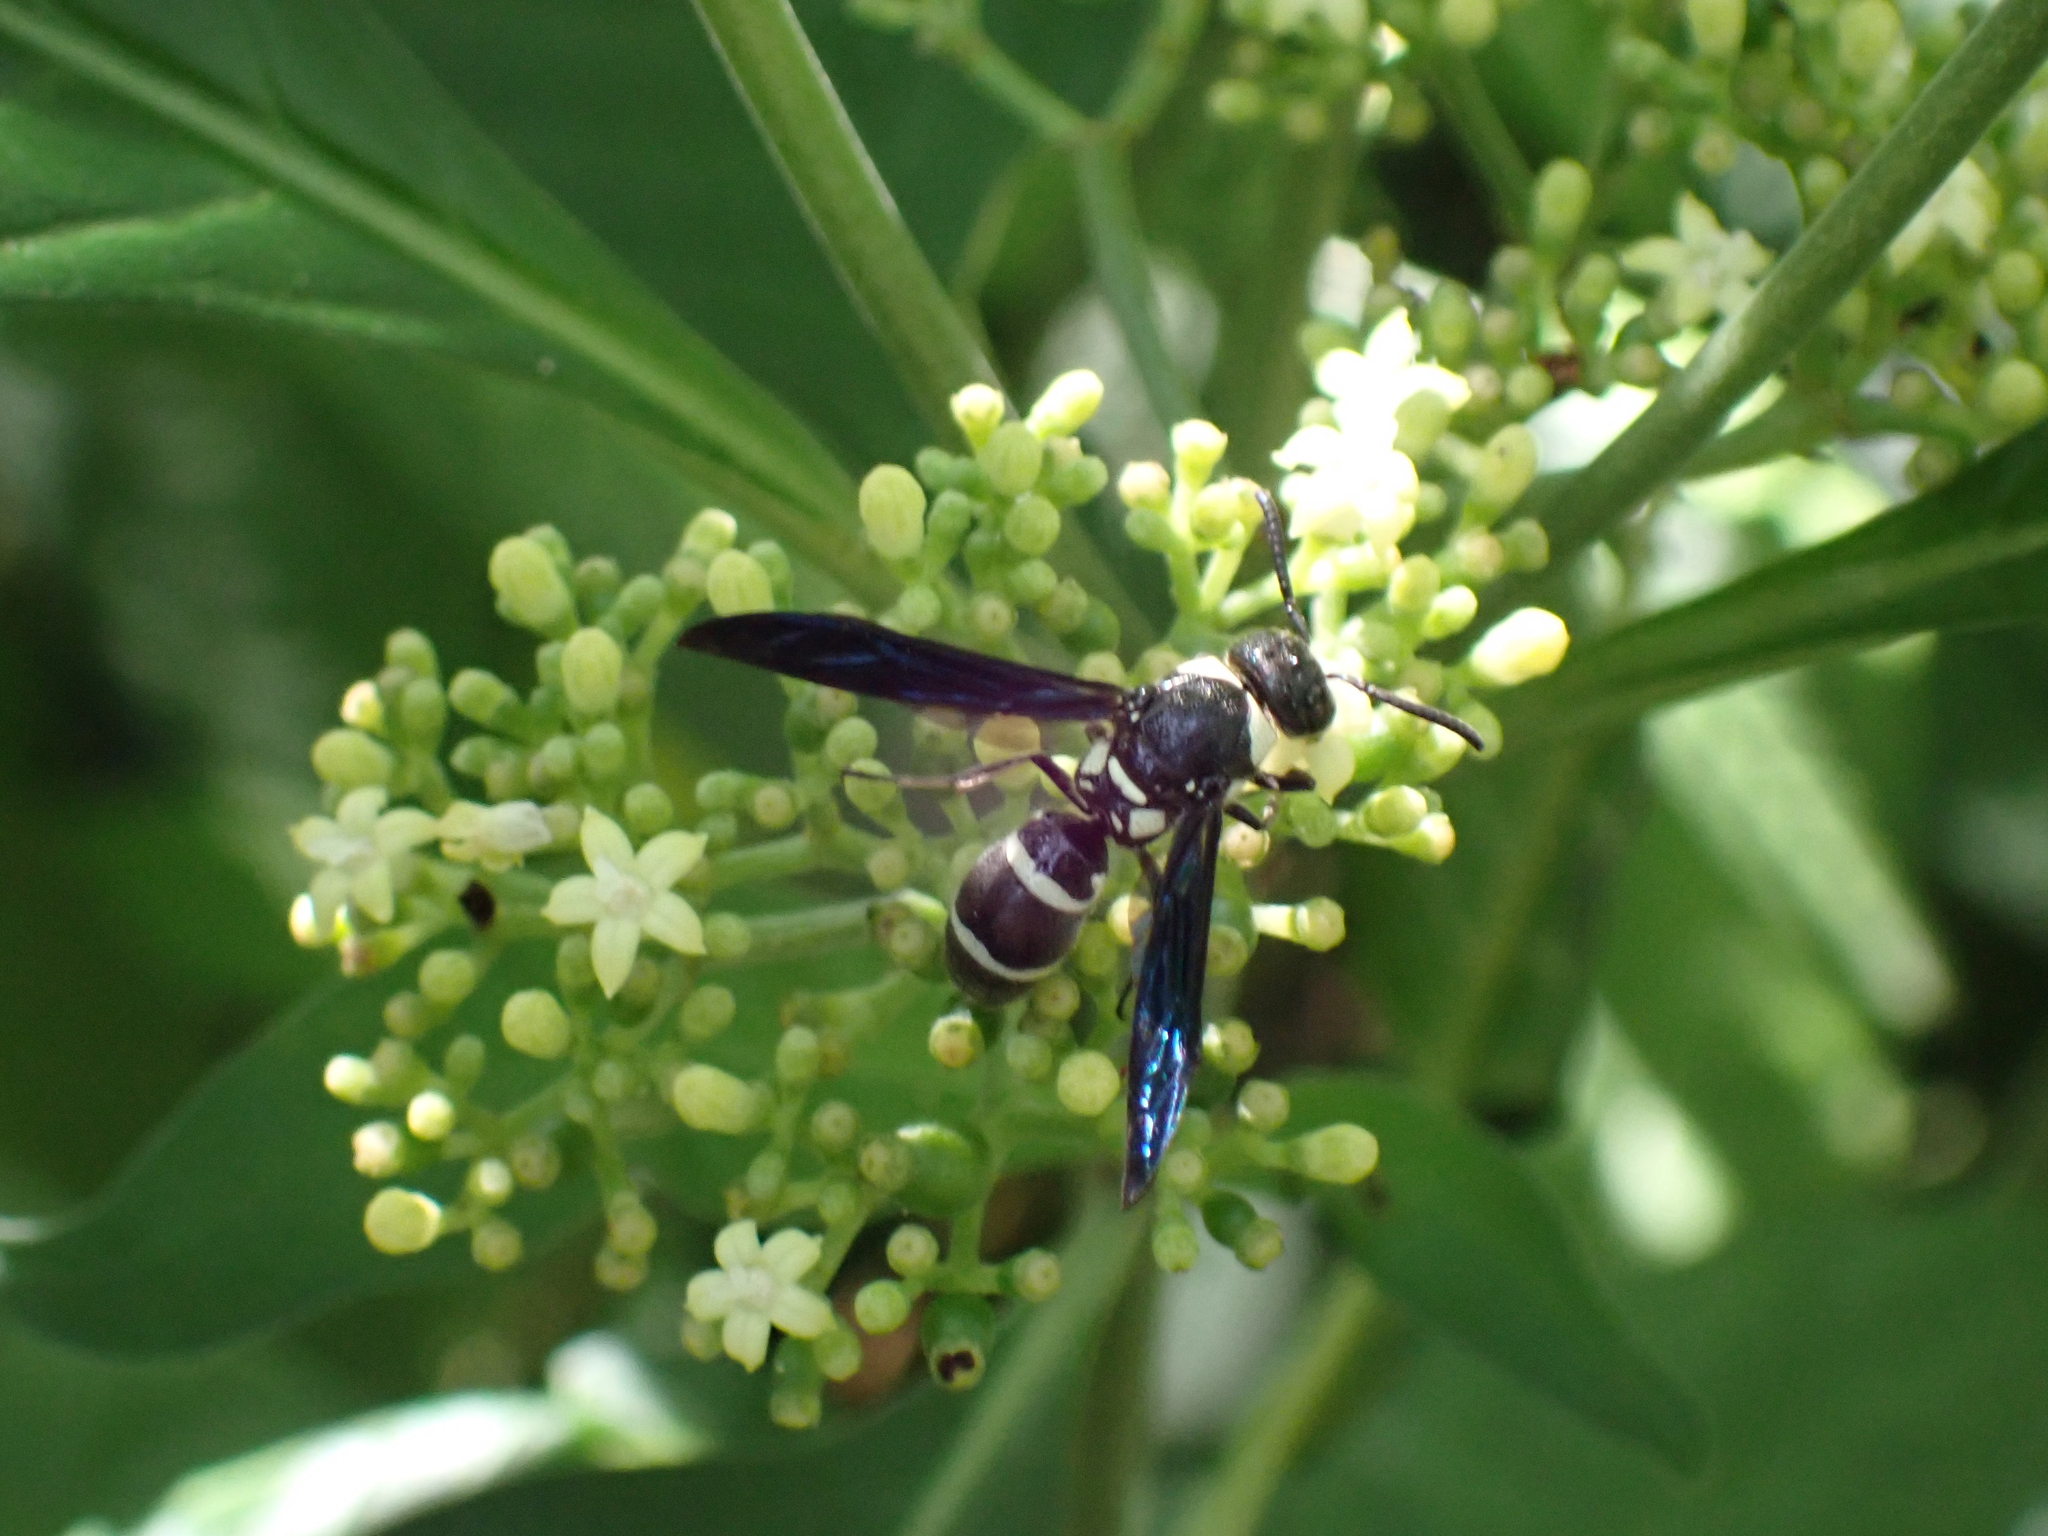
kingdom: Animalia
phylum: Arthropoda
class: Insecta
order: Hymenoptera
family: Eumenidae
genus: Pseudodynerus
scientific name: Pseudodynerus quadrisectus
